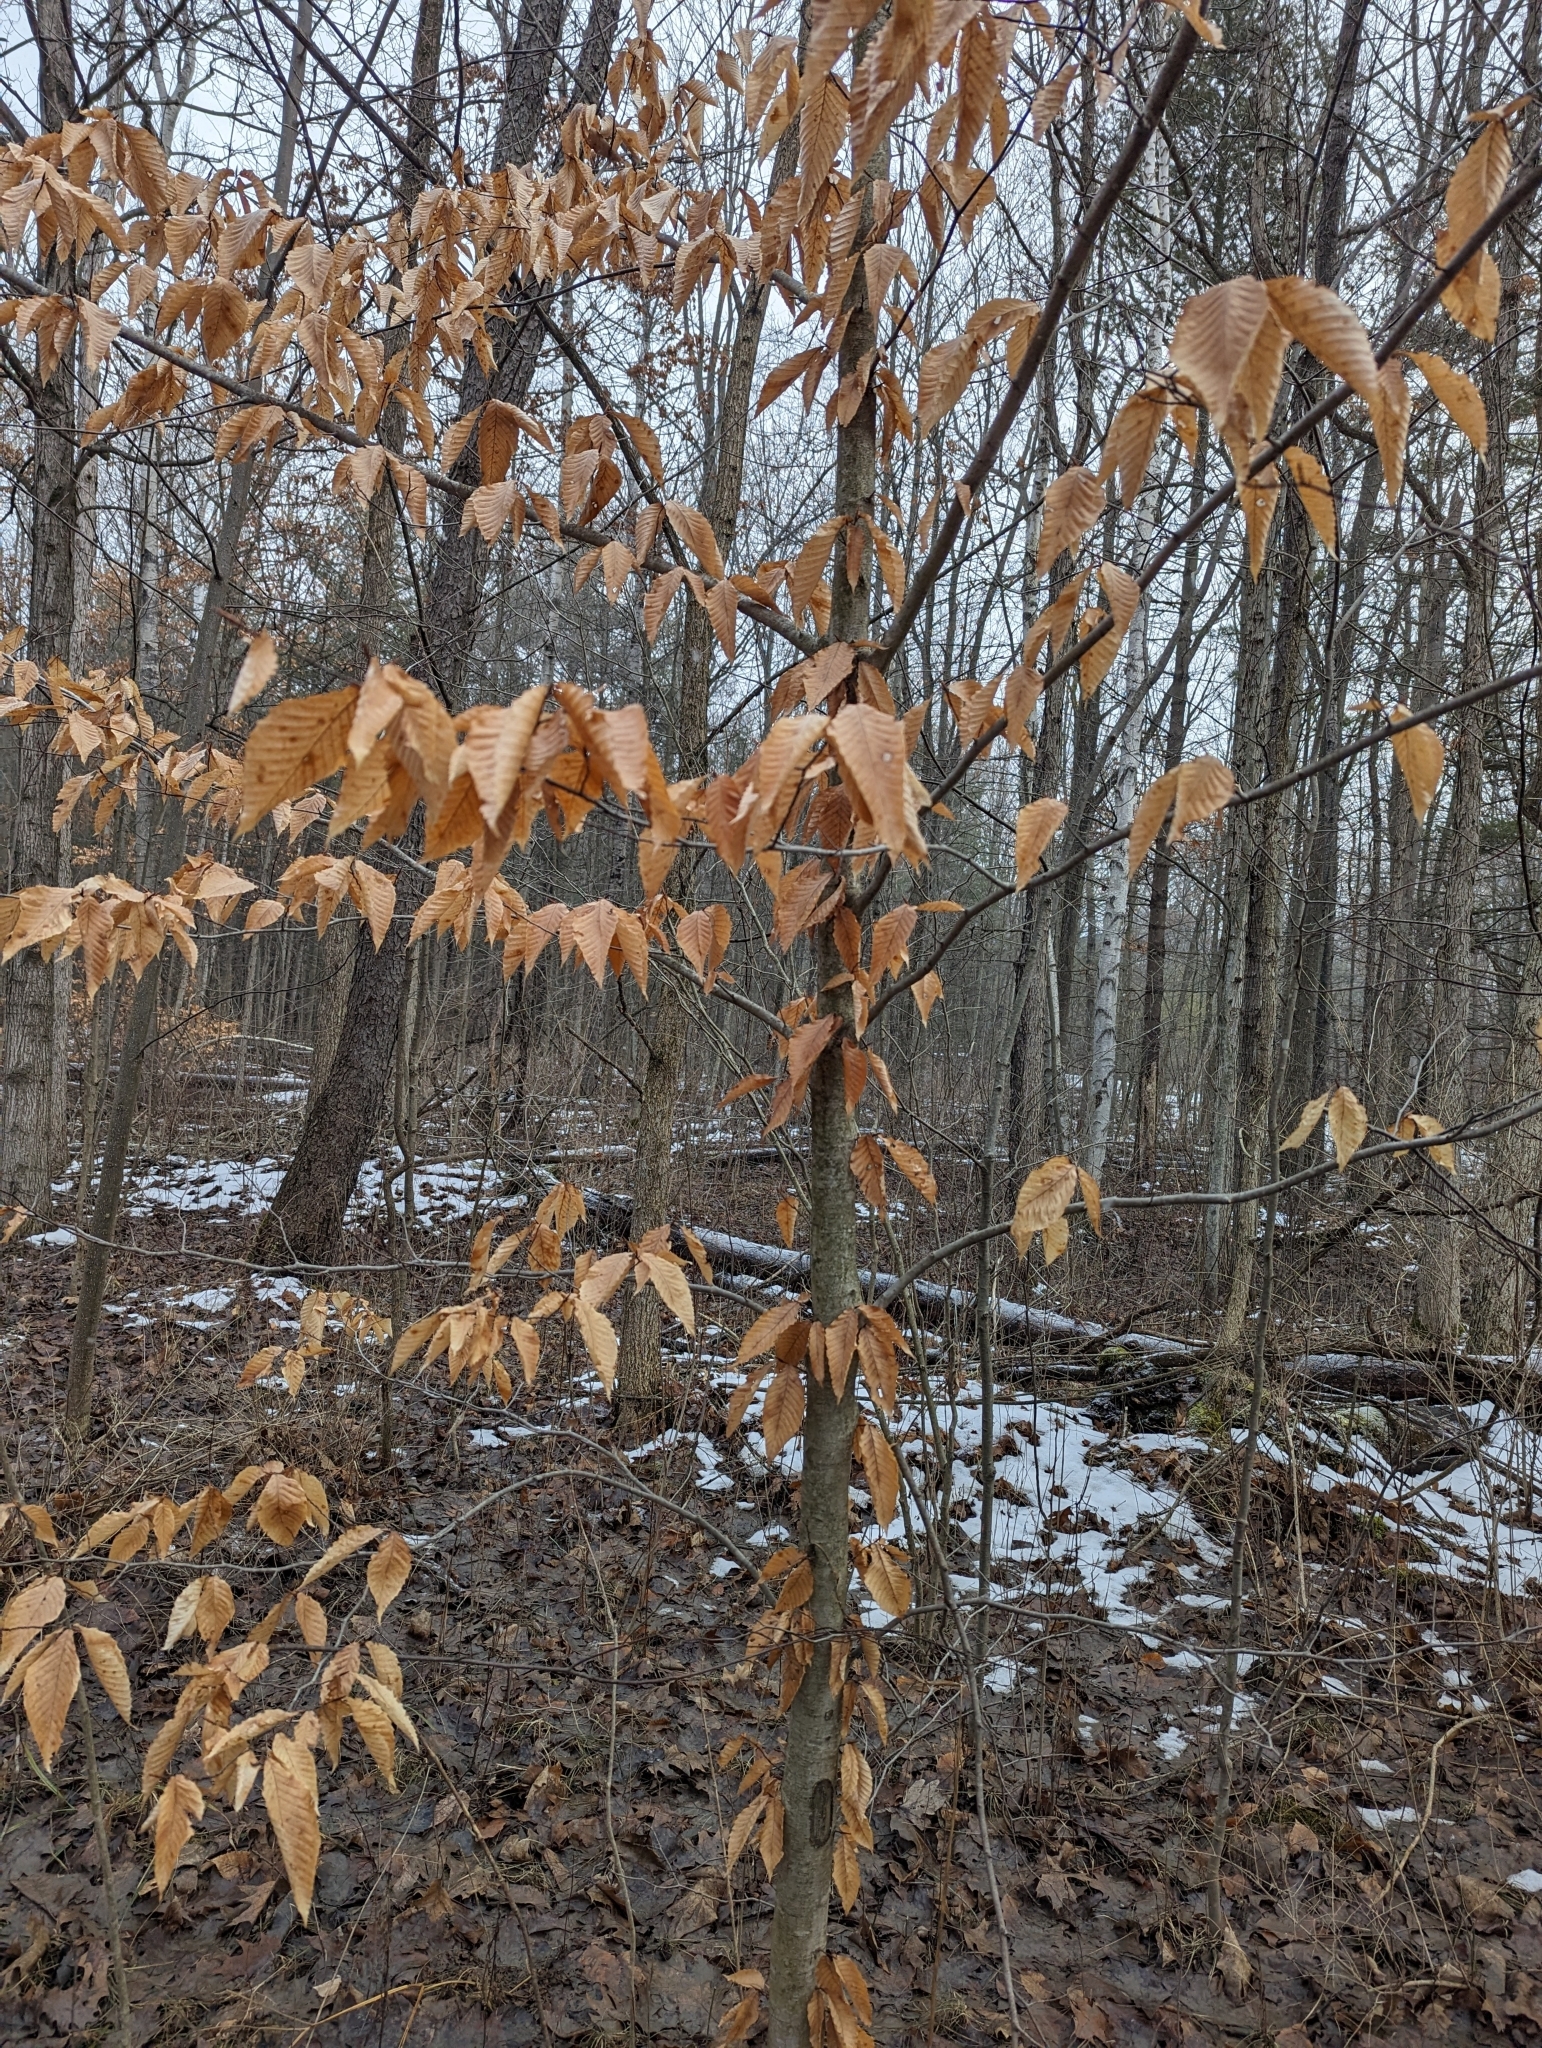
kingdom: Plantae
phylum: Tracheophyta
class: Magnoliopsida
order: Fagales
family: Fagaceae
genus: Fagus
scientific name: Fagus grandifolia
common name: American beech
